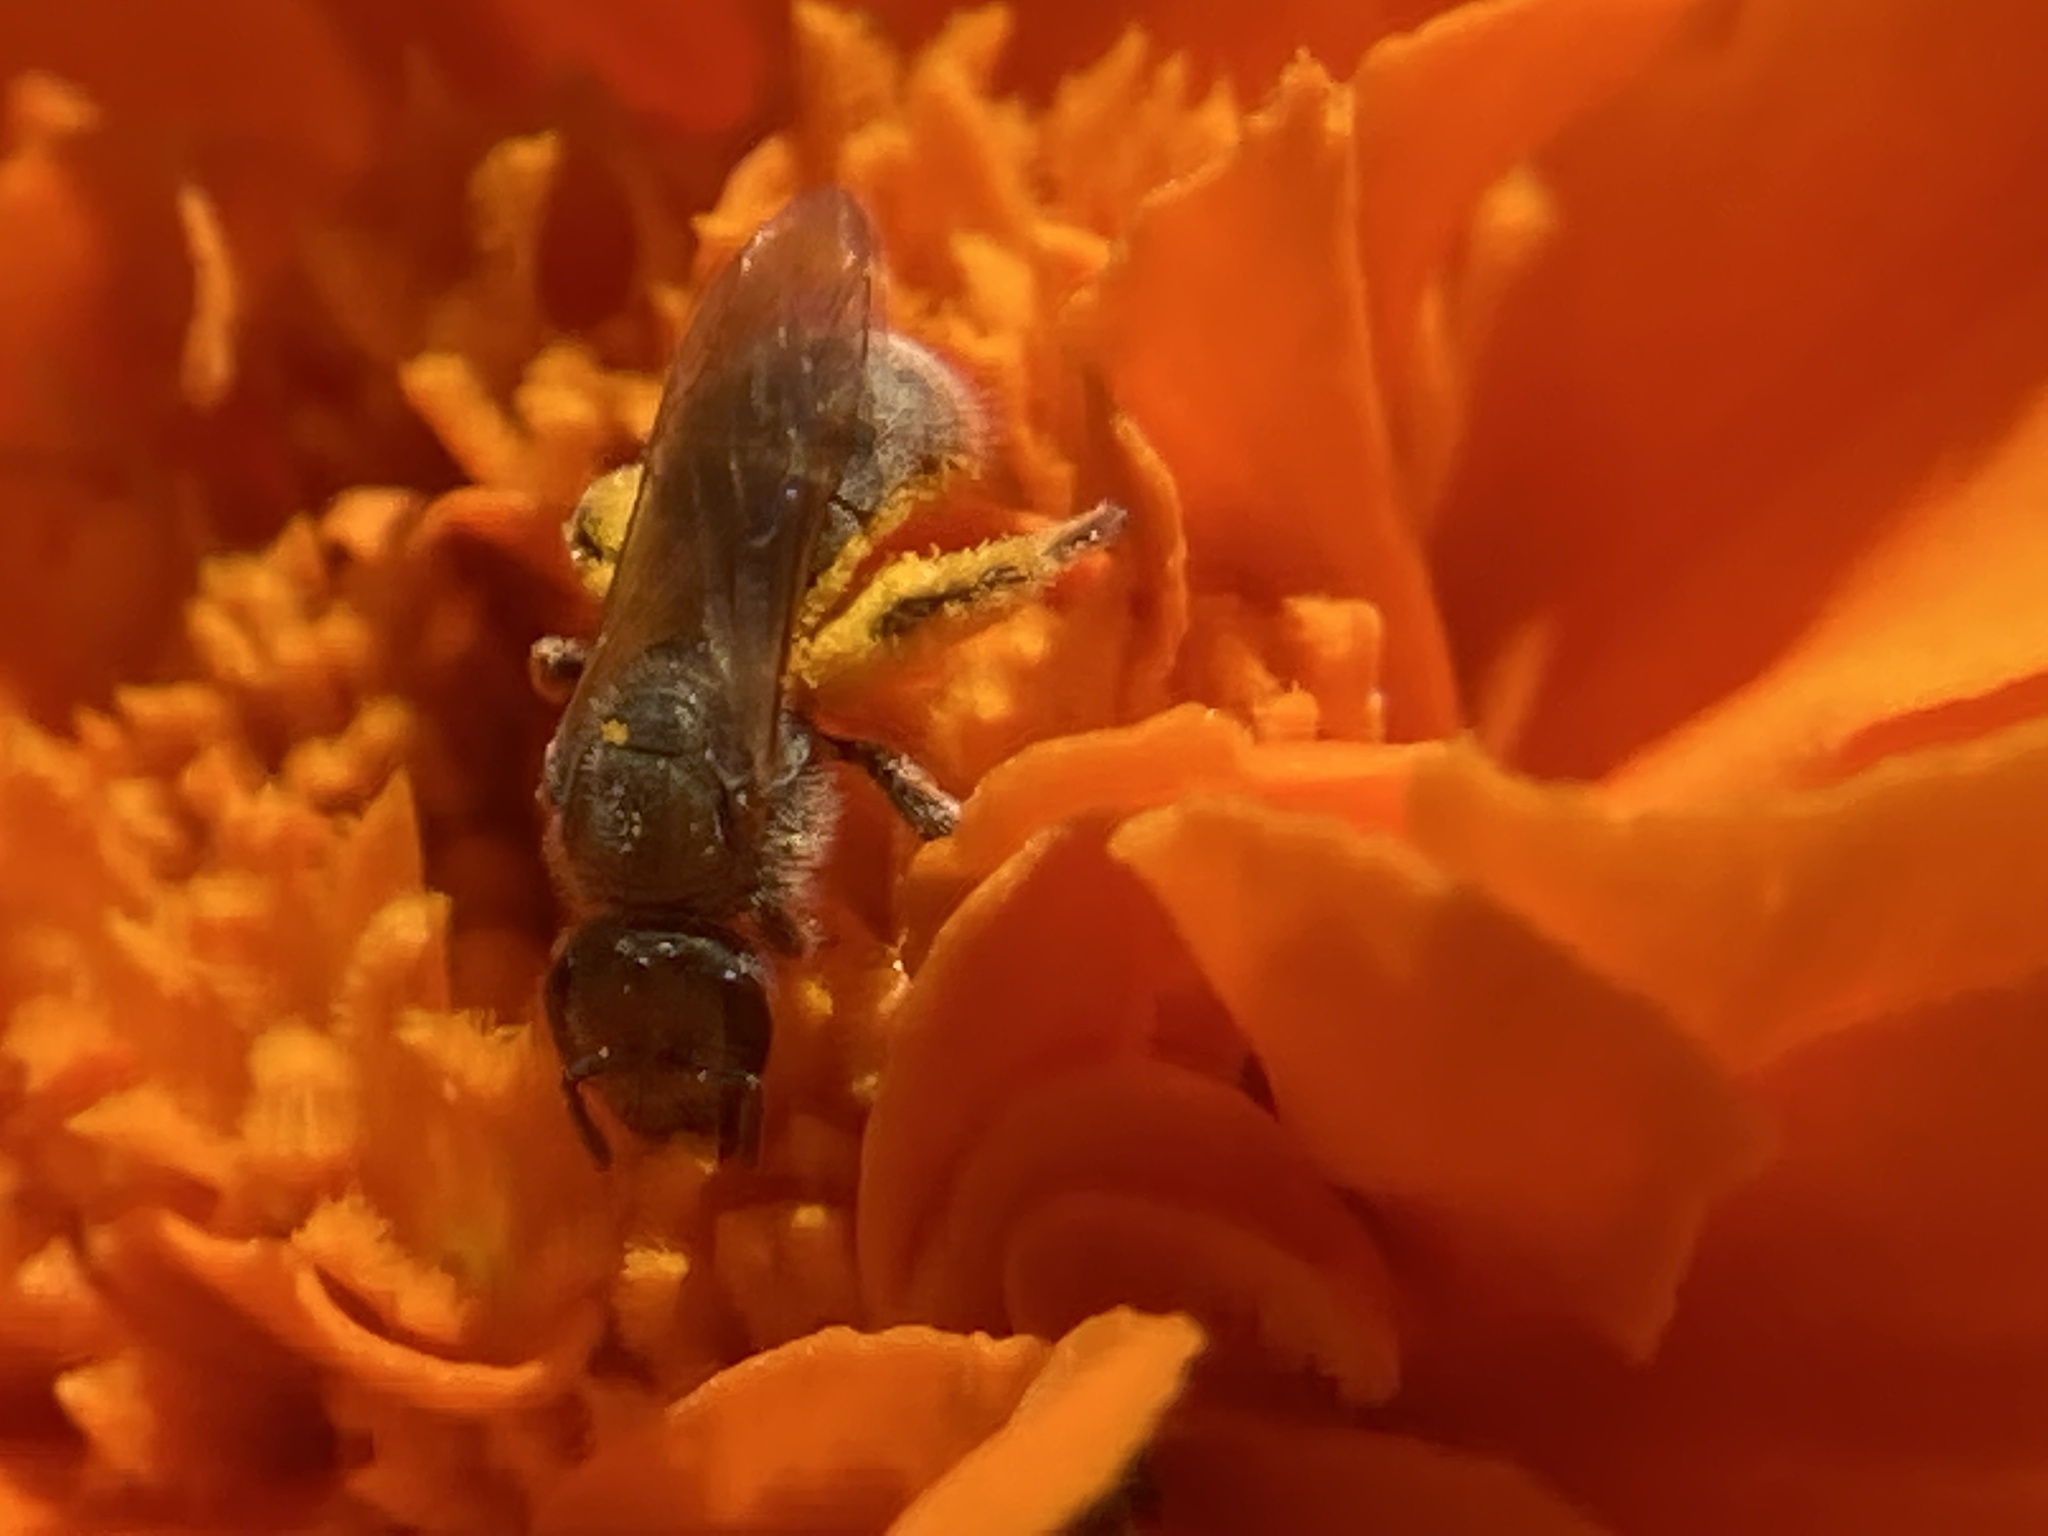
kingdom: Animalia
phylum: Arthropoda
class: Insecta
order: Hymenoptera
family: Halictidae
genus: Lasioglossum
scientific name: Lasioglossum
